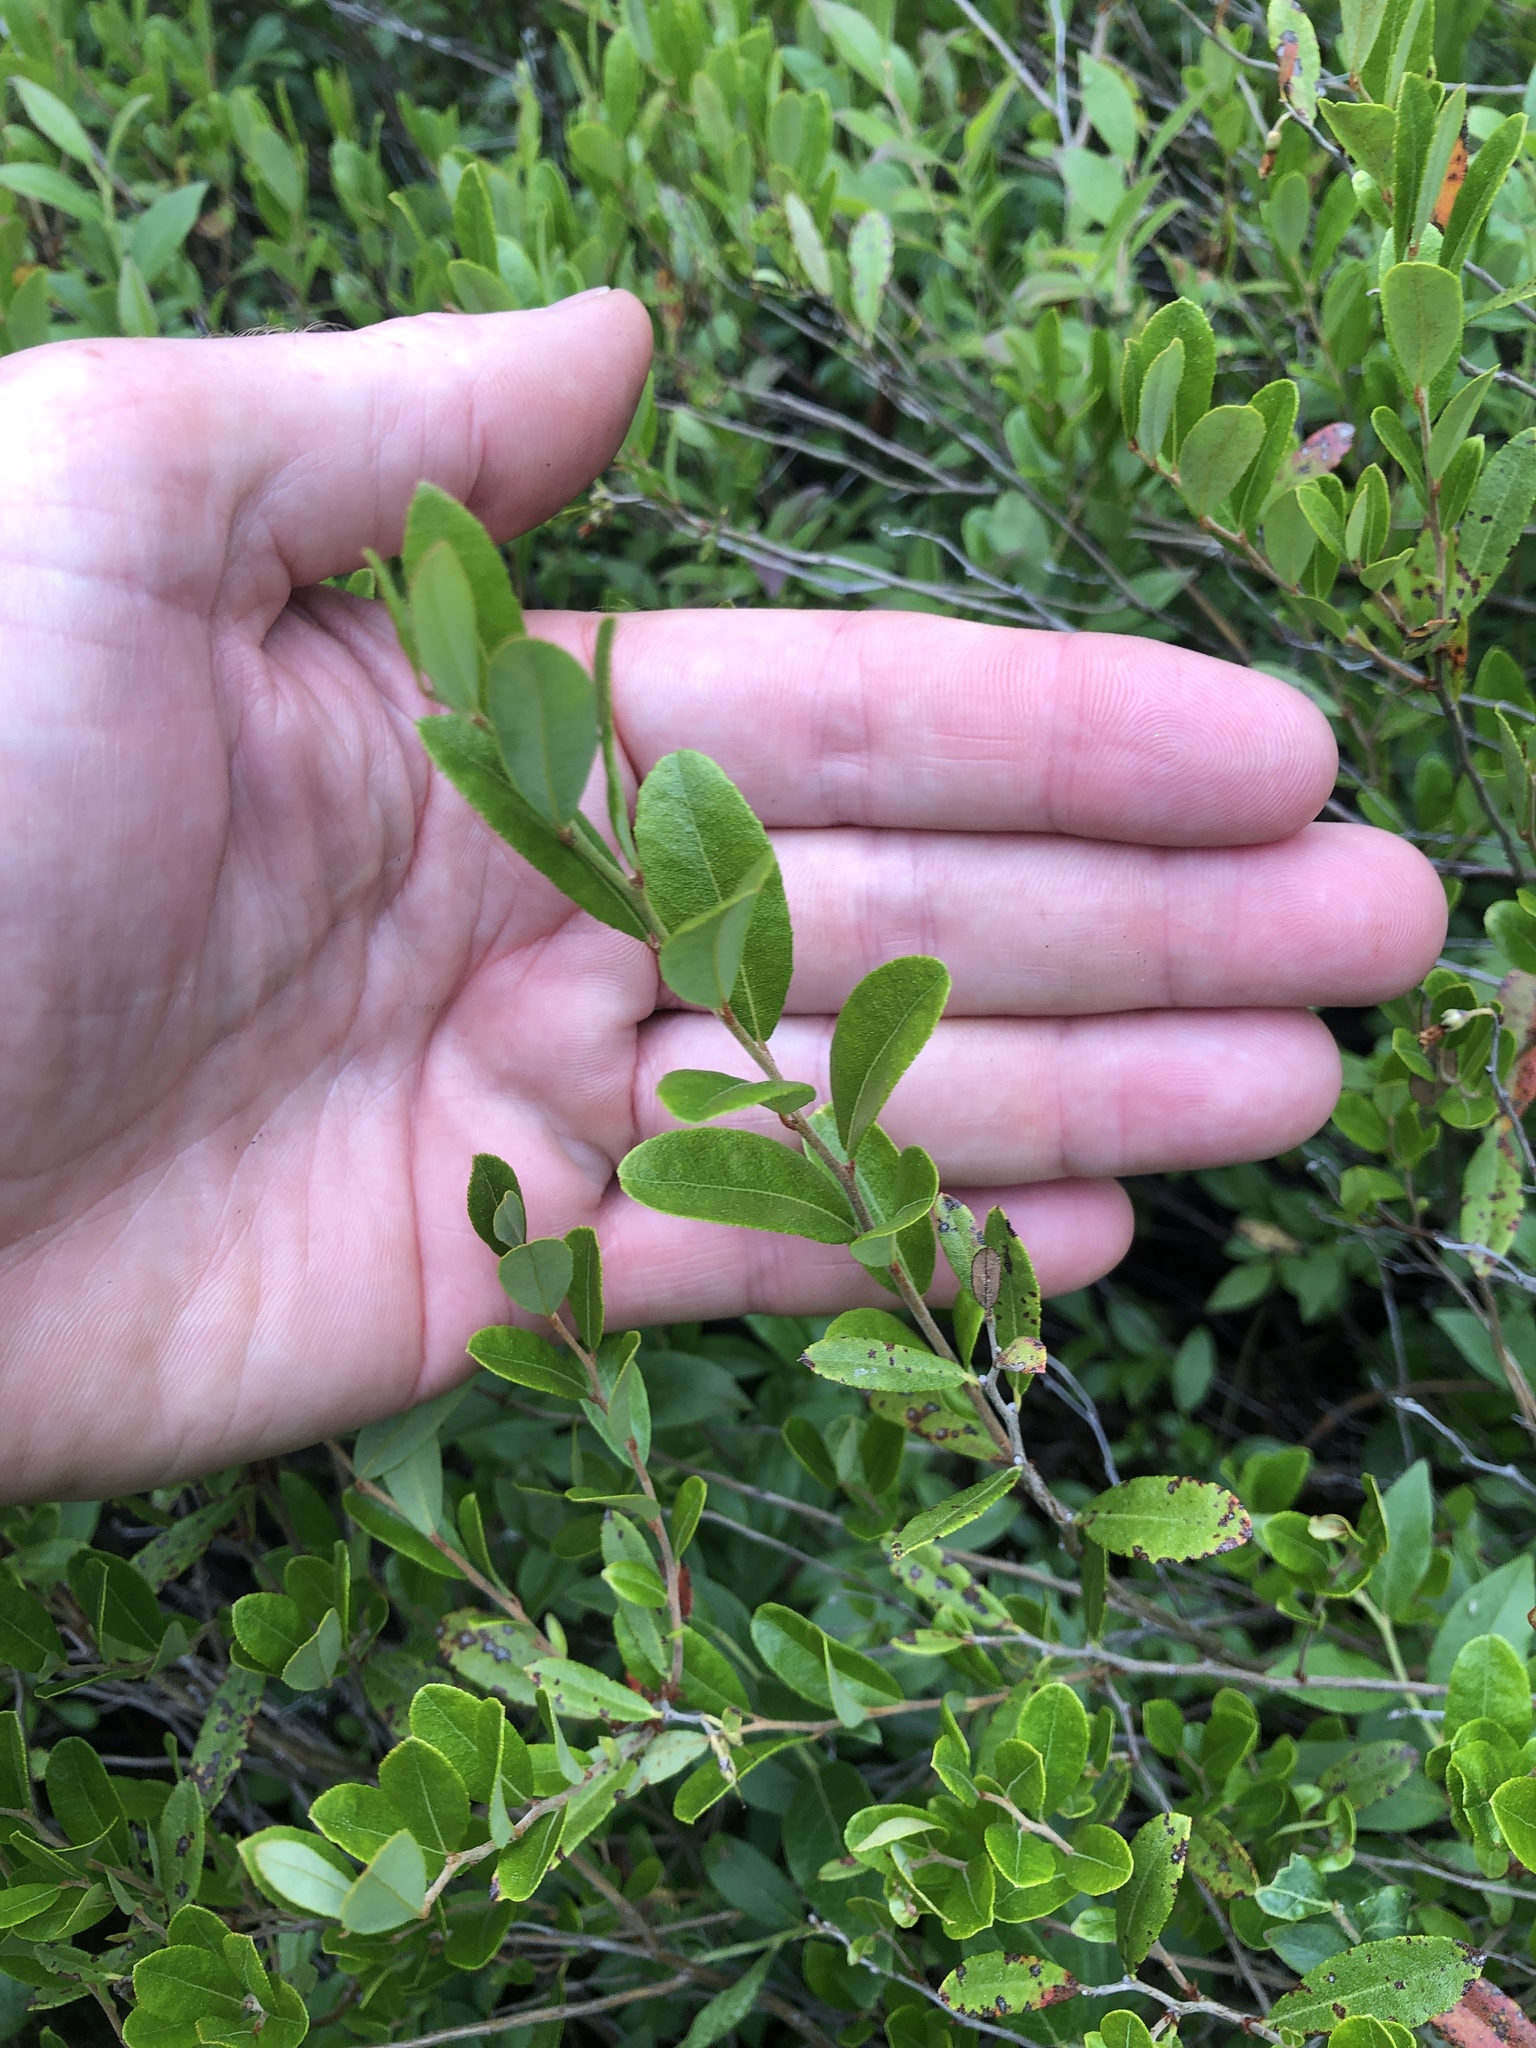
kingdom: Plantae
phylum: Tracheophyta
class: Magnoliopsida
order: Ericales
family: Ericaceae
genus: Chamaedaphne
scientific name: Chamaedaphne calyculata
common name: Leatherleaf
